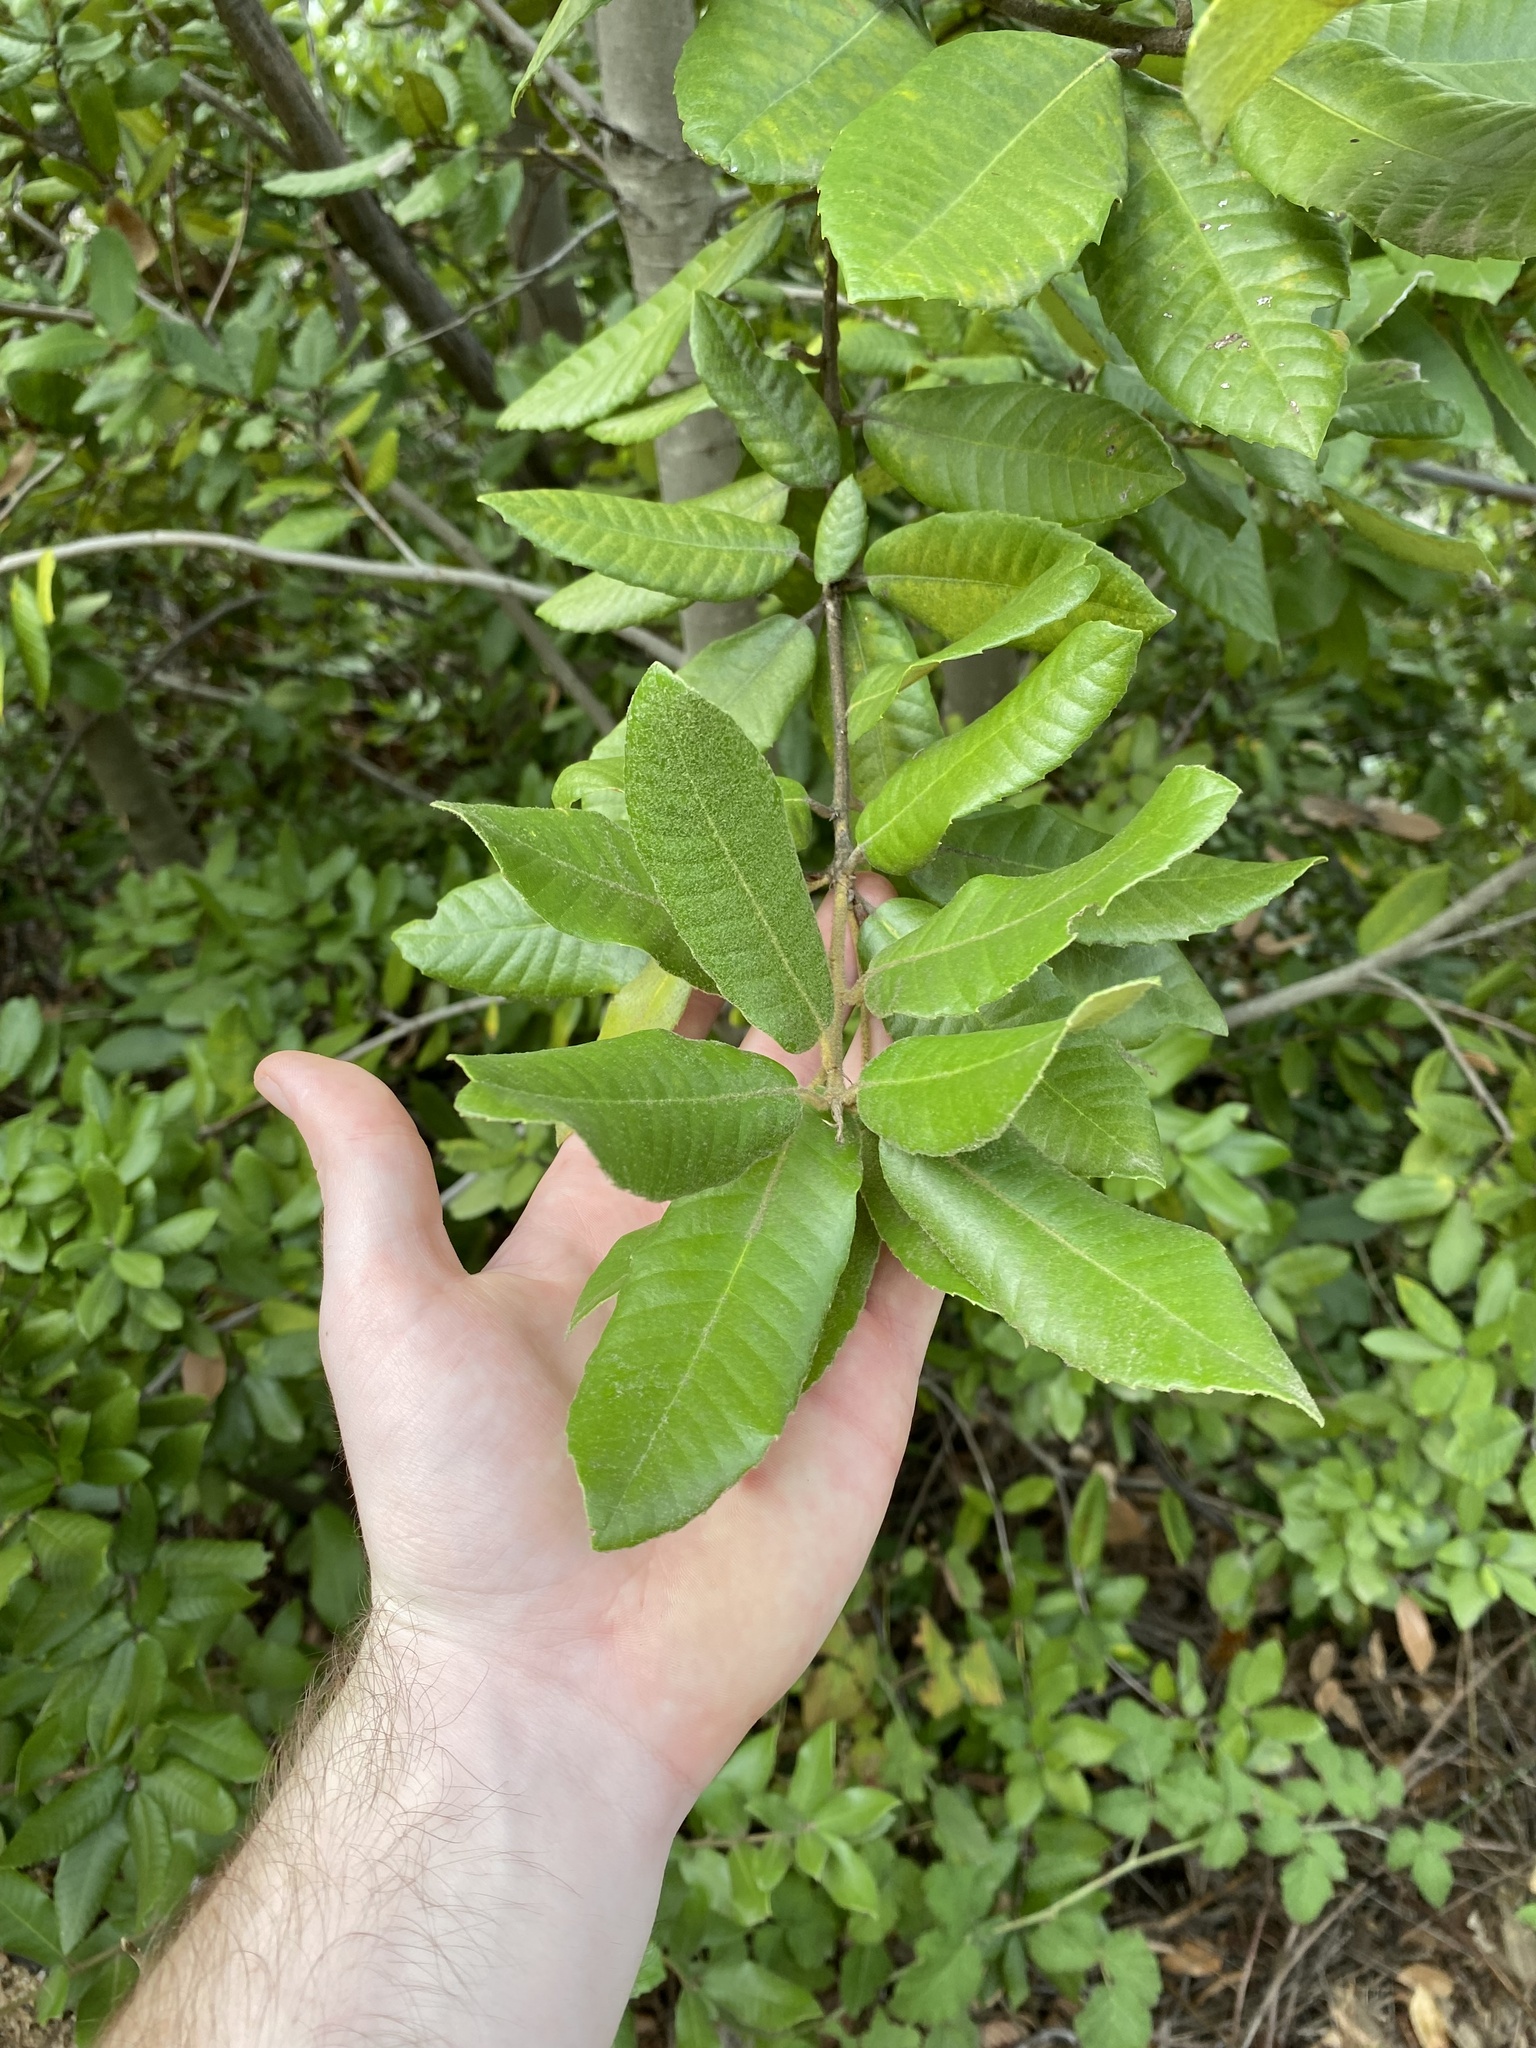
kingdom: Plantae
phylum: Tracheophyta
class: Magnoliopsida
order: Fagales
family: Fagaceae
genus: Notholithocarpus
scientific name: Notholithocarpus densiflorus
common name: Tan bark oak
